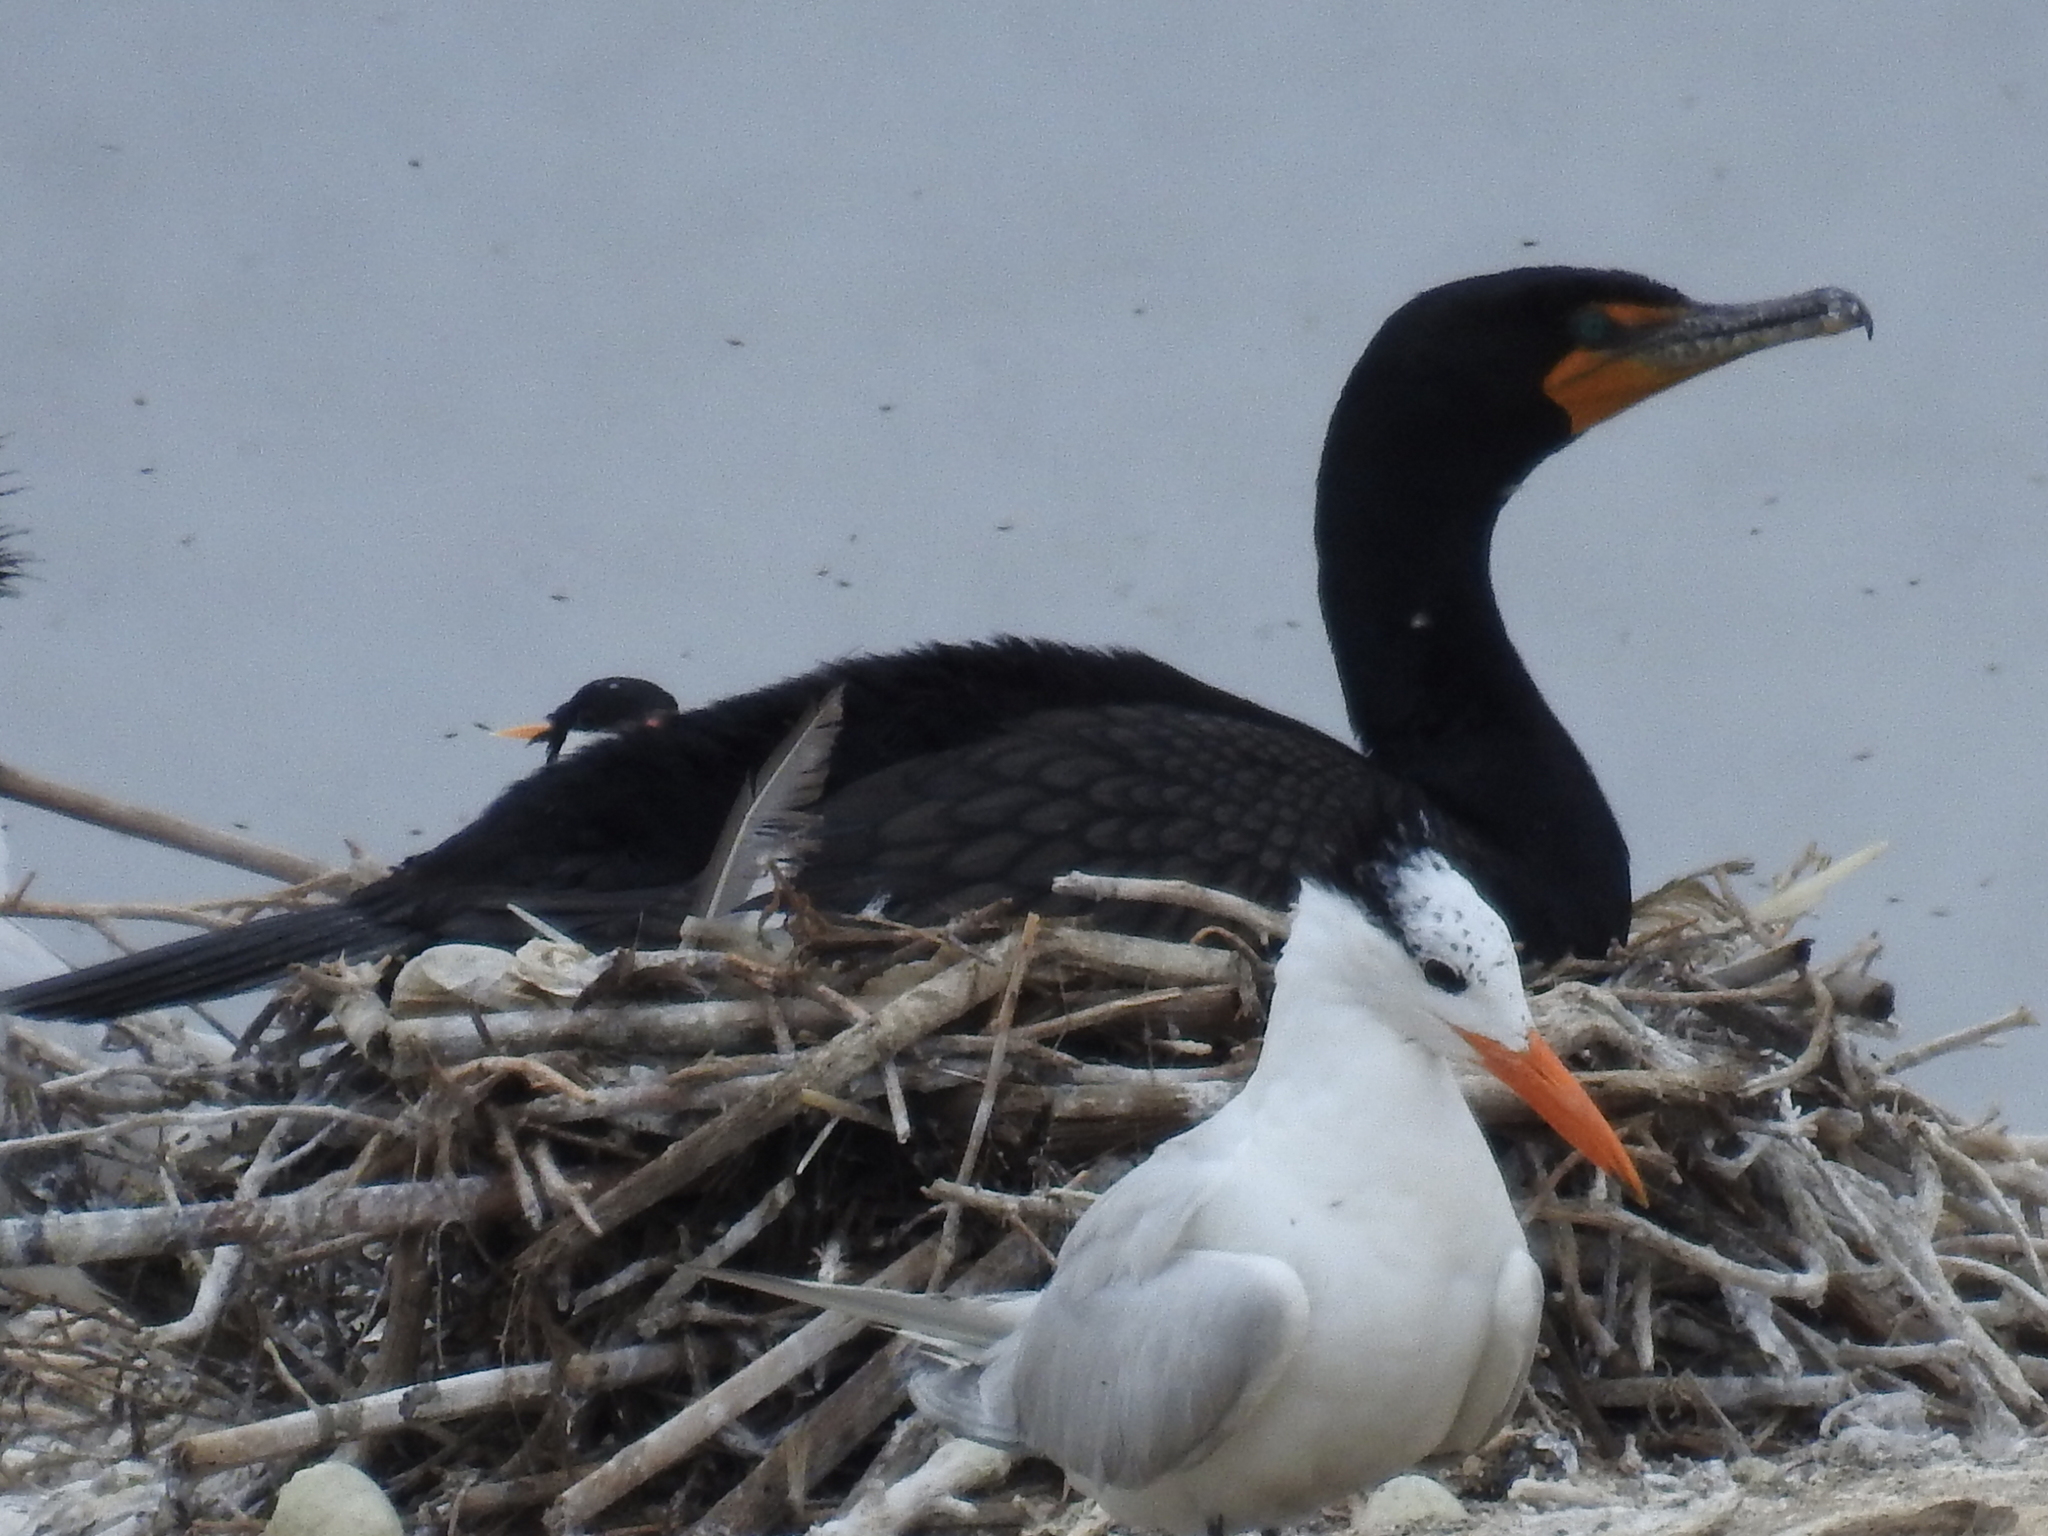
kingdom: Animalia
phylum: Chordata
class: Aves
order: Suliformes
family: Phalacrocoracidae
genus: Phalacrocorax
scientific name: Phalacrocorax auritus
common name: Double-crested cormorant
